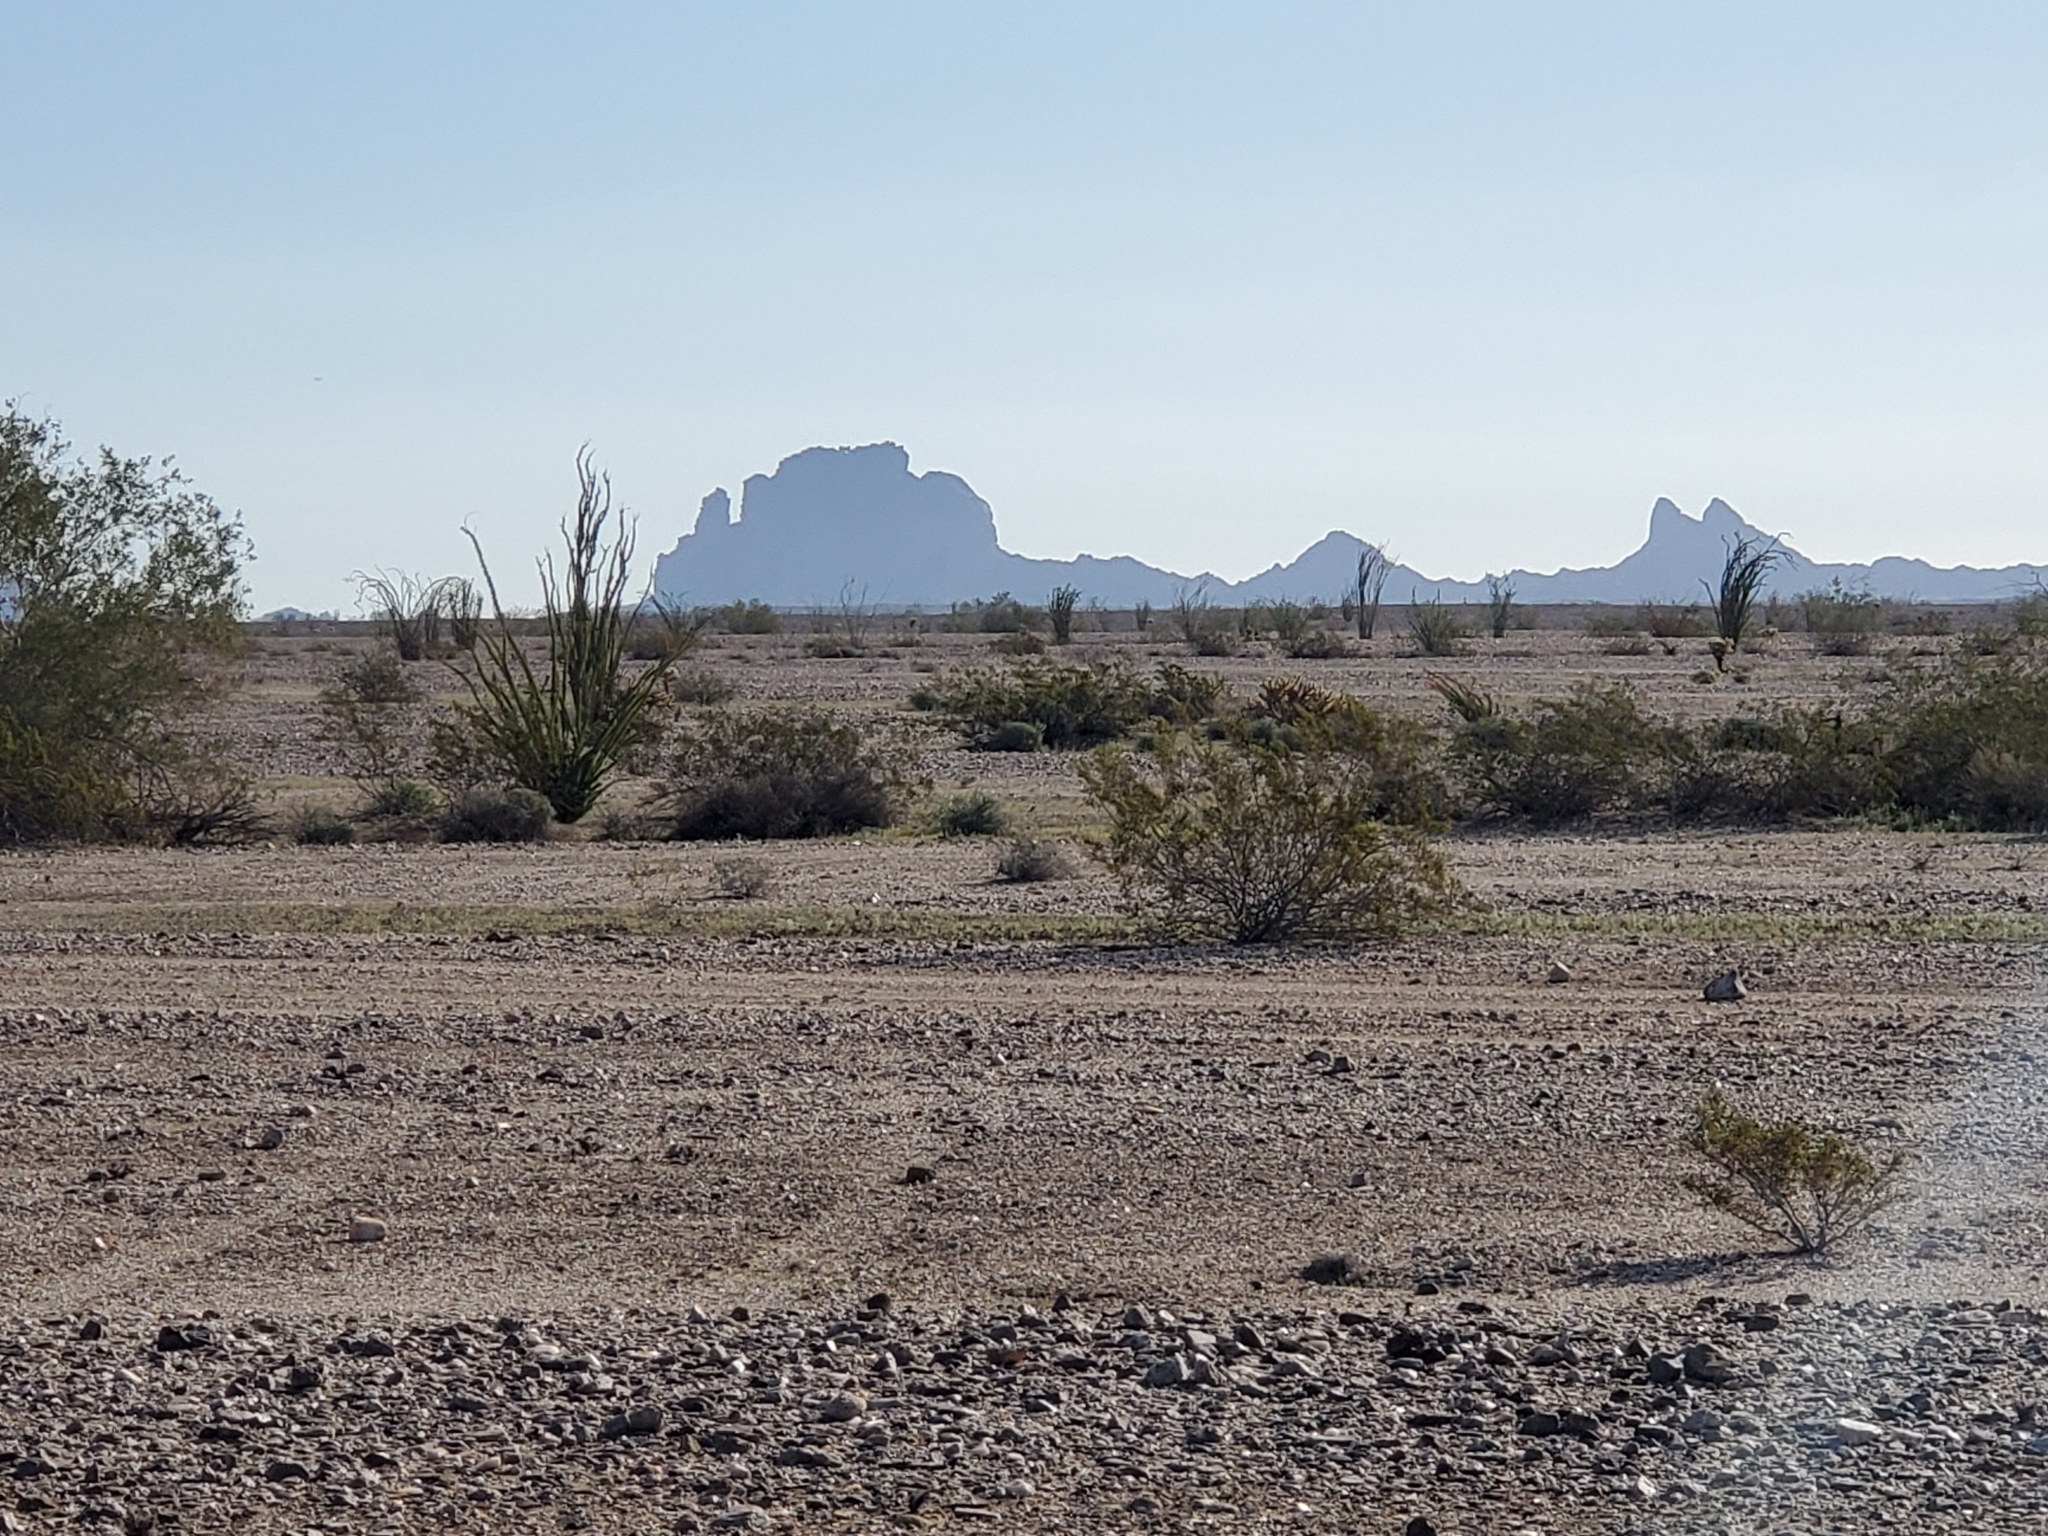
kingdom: Plantae
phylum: Tracheophyta
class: Magnoliopsida
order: Ericales
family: Fouquieriaceae
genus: Fouquieria
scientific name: Fouquieria splendens
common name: Vine-cactus
